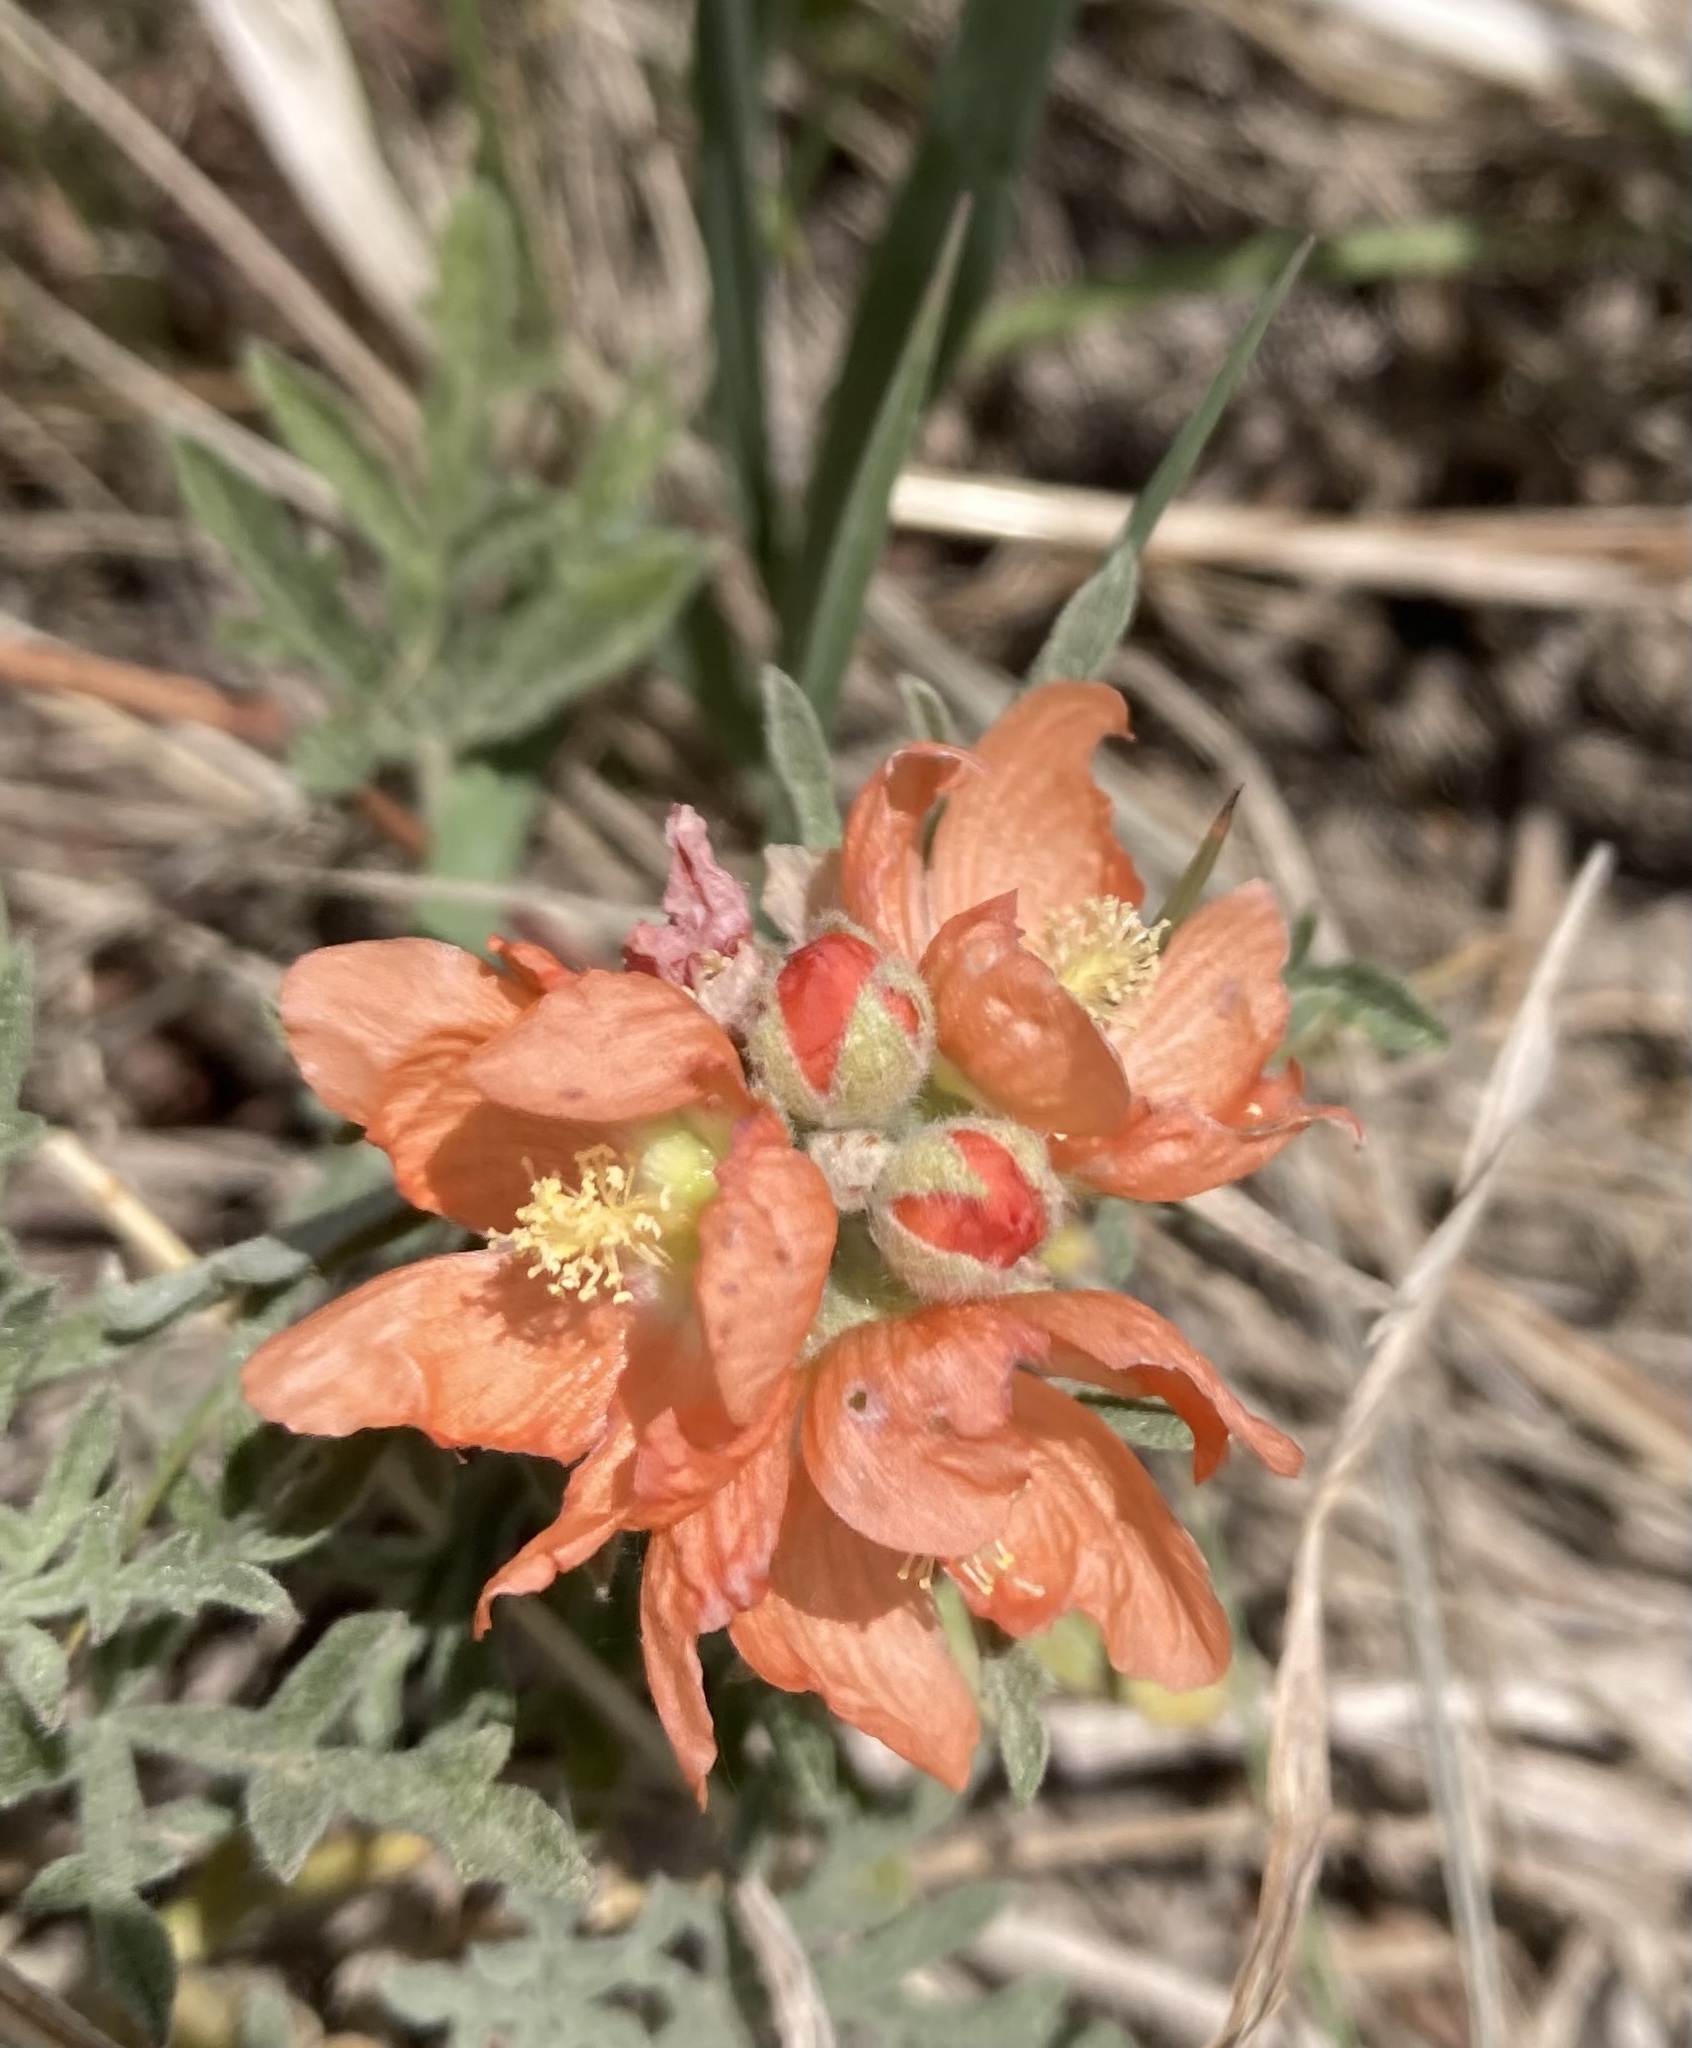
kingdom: Plantae
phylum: Tracheophyta
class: Magnoliopsida
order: Malvales
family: Malvaceae
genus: Sphaeralcea
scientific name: Sphaeralcea coccinea
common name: Moss-rose
